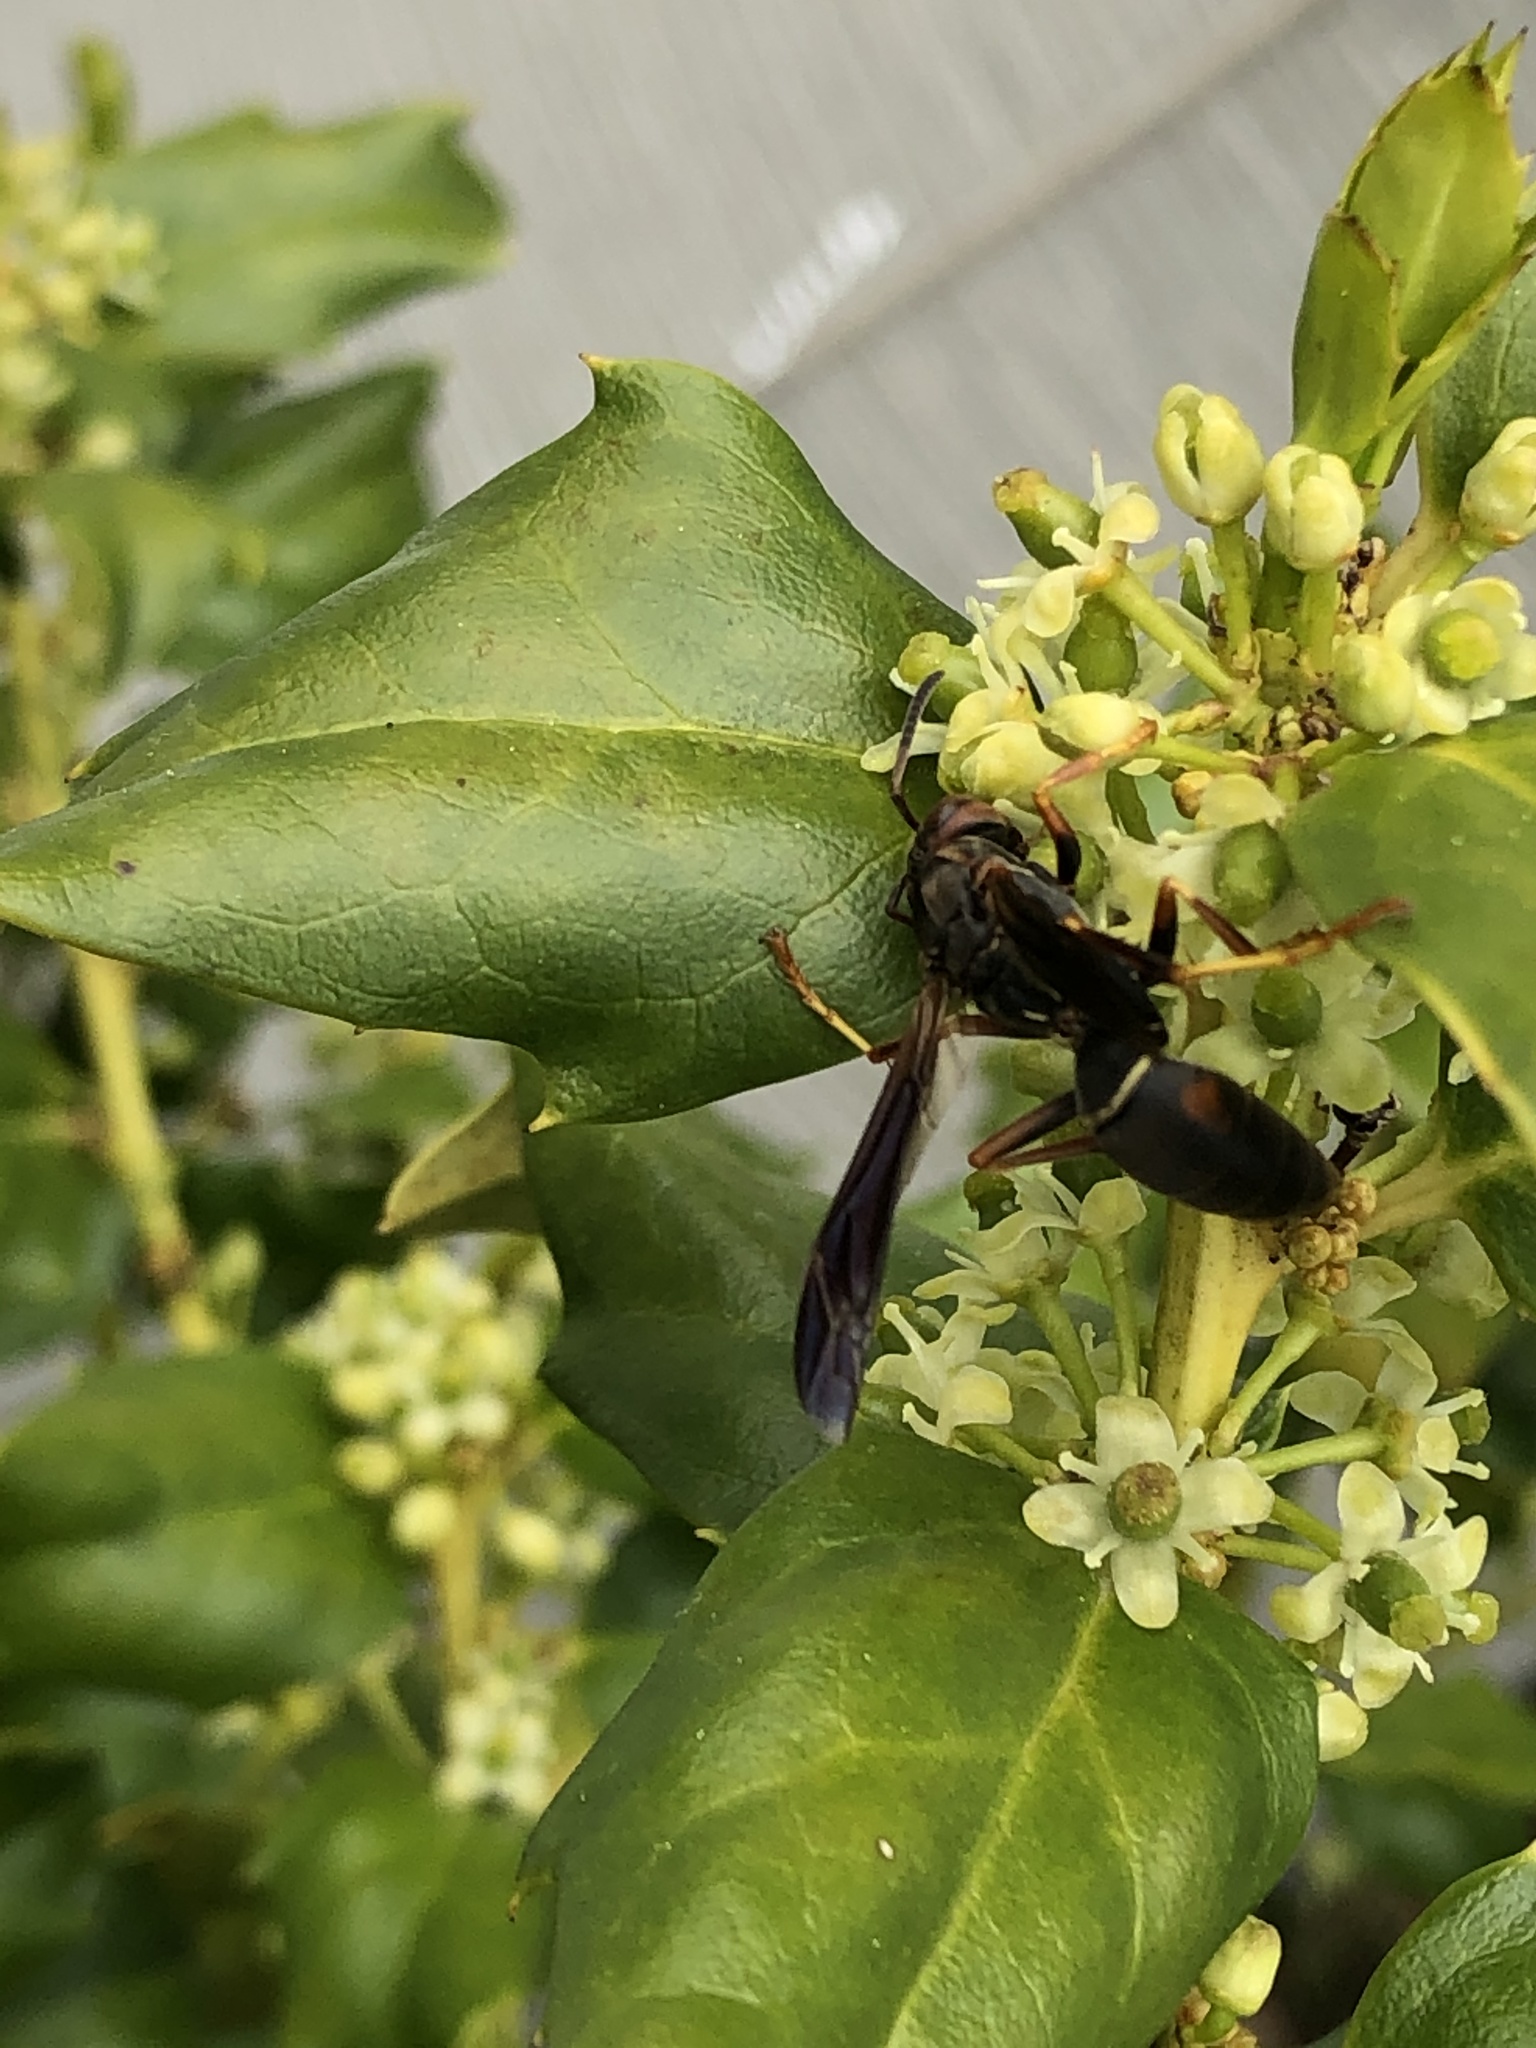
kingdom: Animalia
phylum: Arthropoda
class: Insecta
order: Hymenoptera
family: Eumenidae
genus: Polistes
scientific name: Polistes fuscatus
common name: Dark paper wasp
